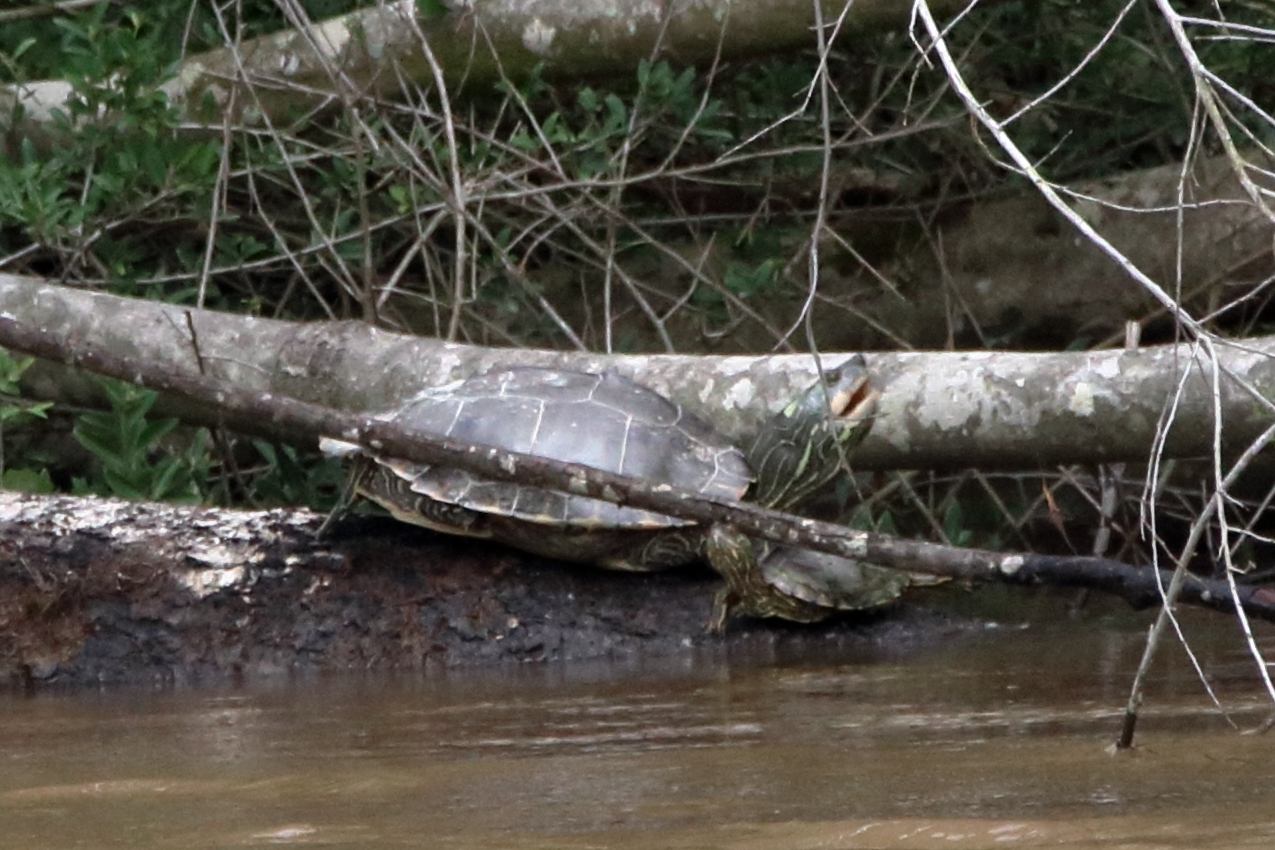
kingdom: Animalia
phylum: Chordata
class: Testudines
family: Emydidae
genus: Graptemys
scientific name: Graptemys pearlensis
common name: Pearl river map turtle
